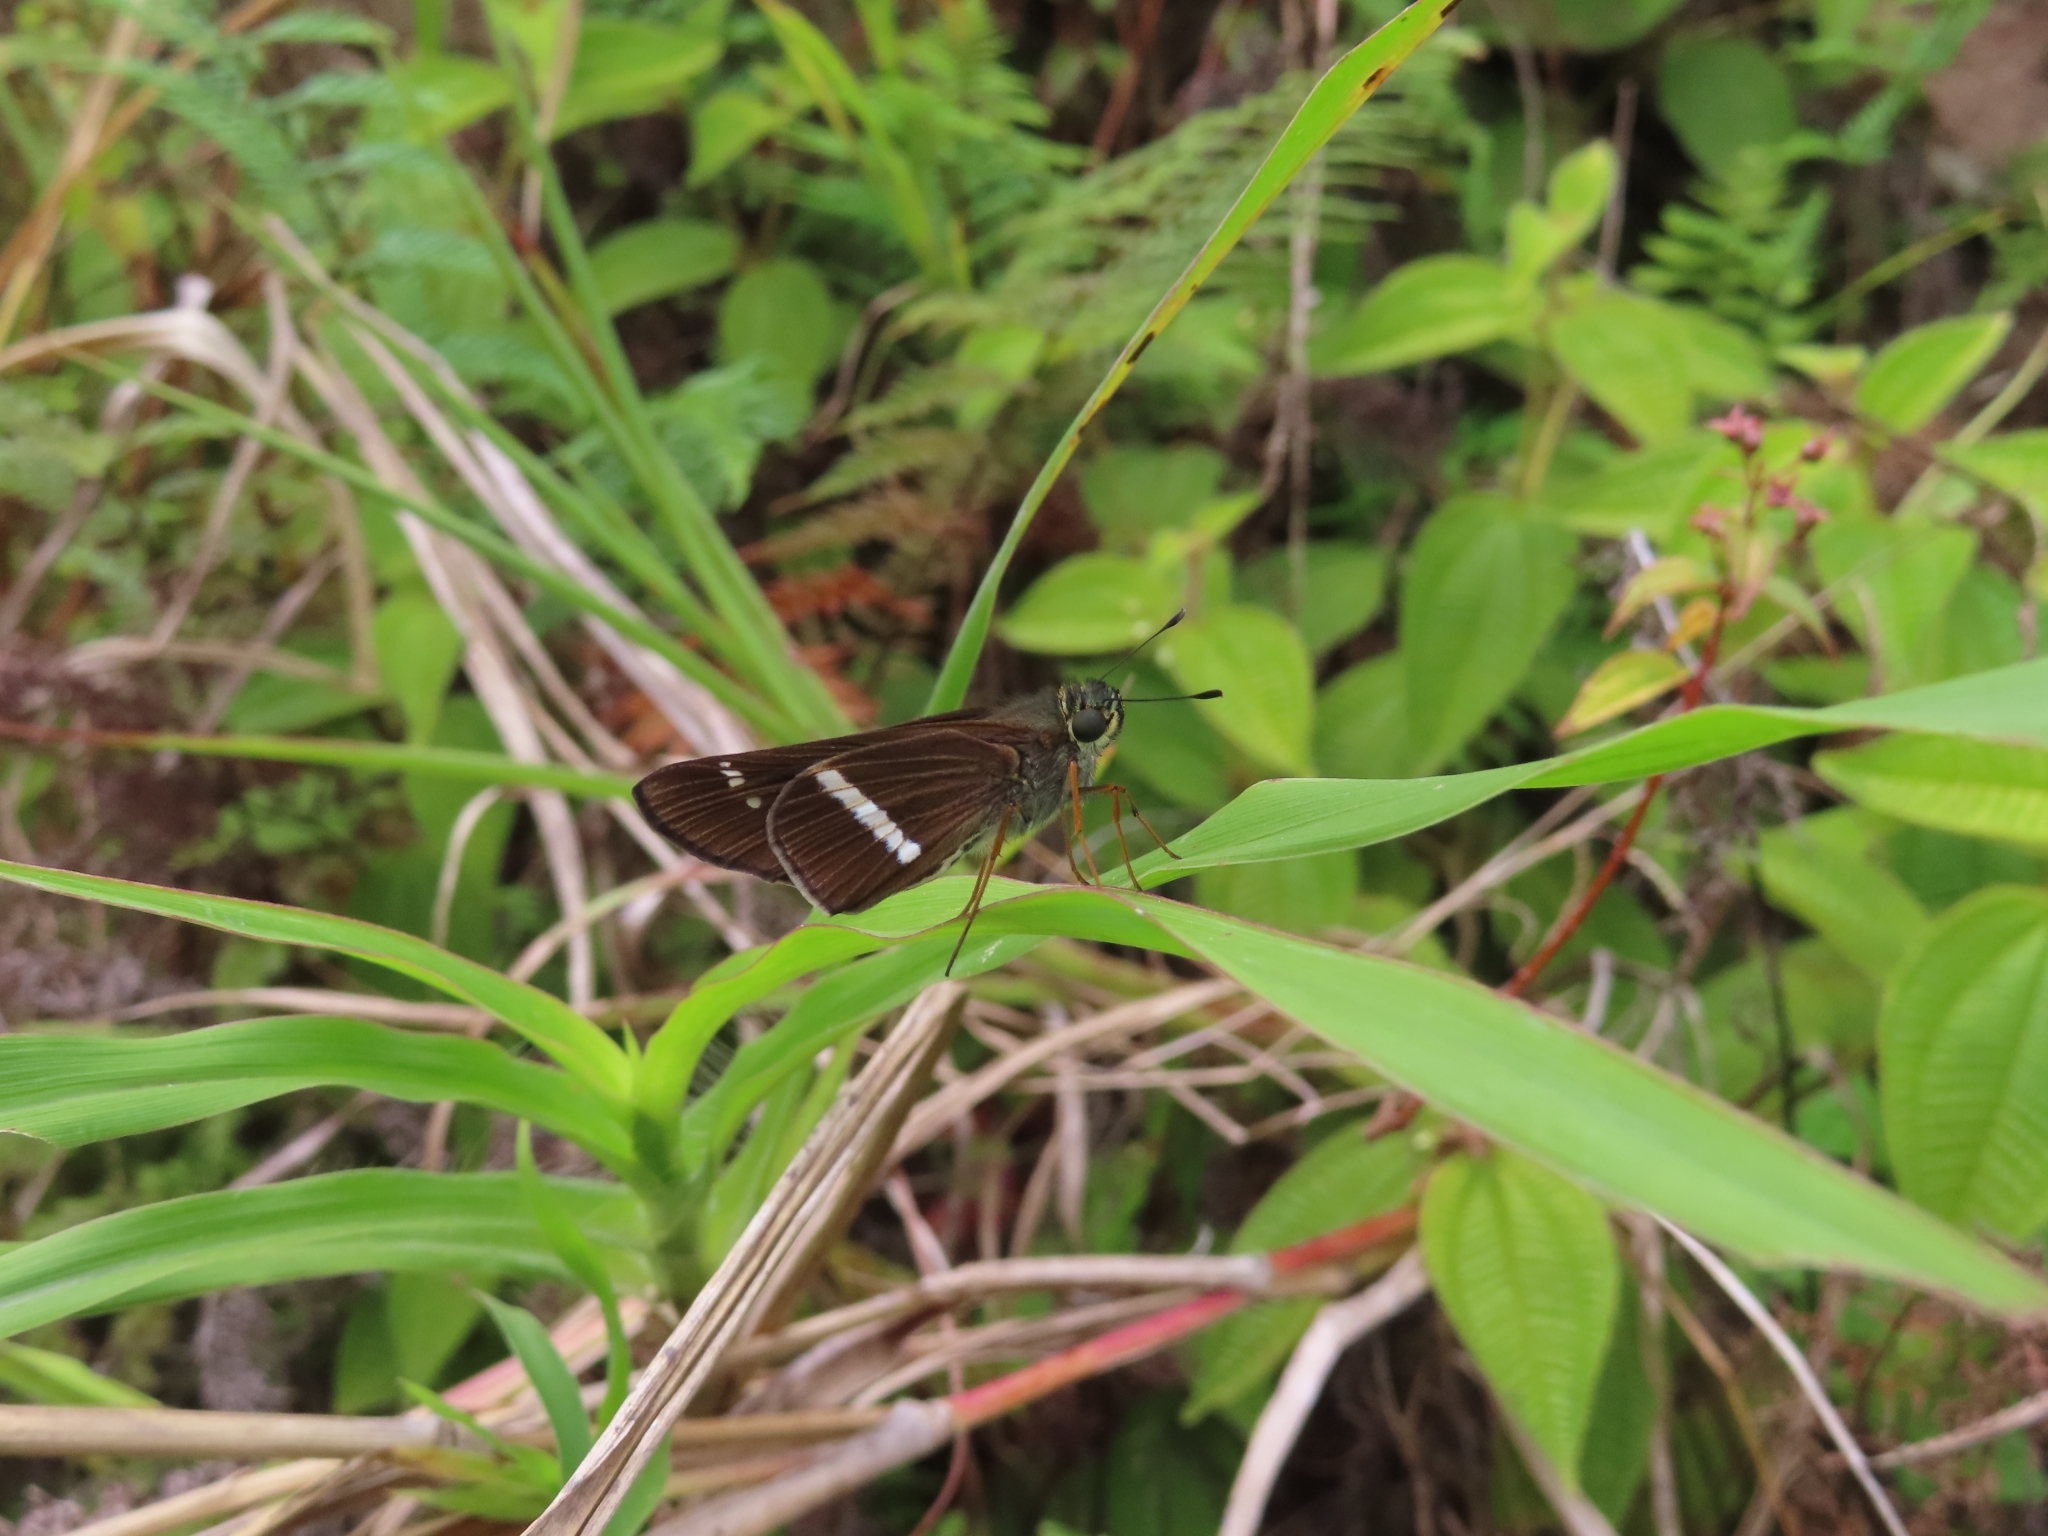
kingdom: Animalia
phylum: Arthropoda
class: Insecta
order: Lepidoptera
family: Hesperiidae
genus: Panoquina
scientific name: Panoquina nero
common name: Nero skipper
